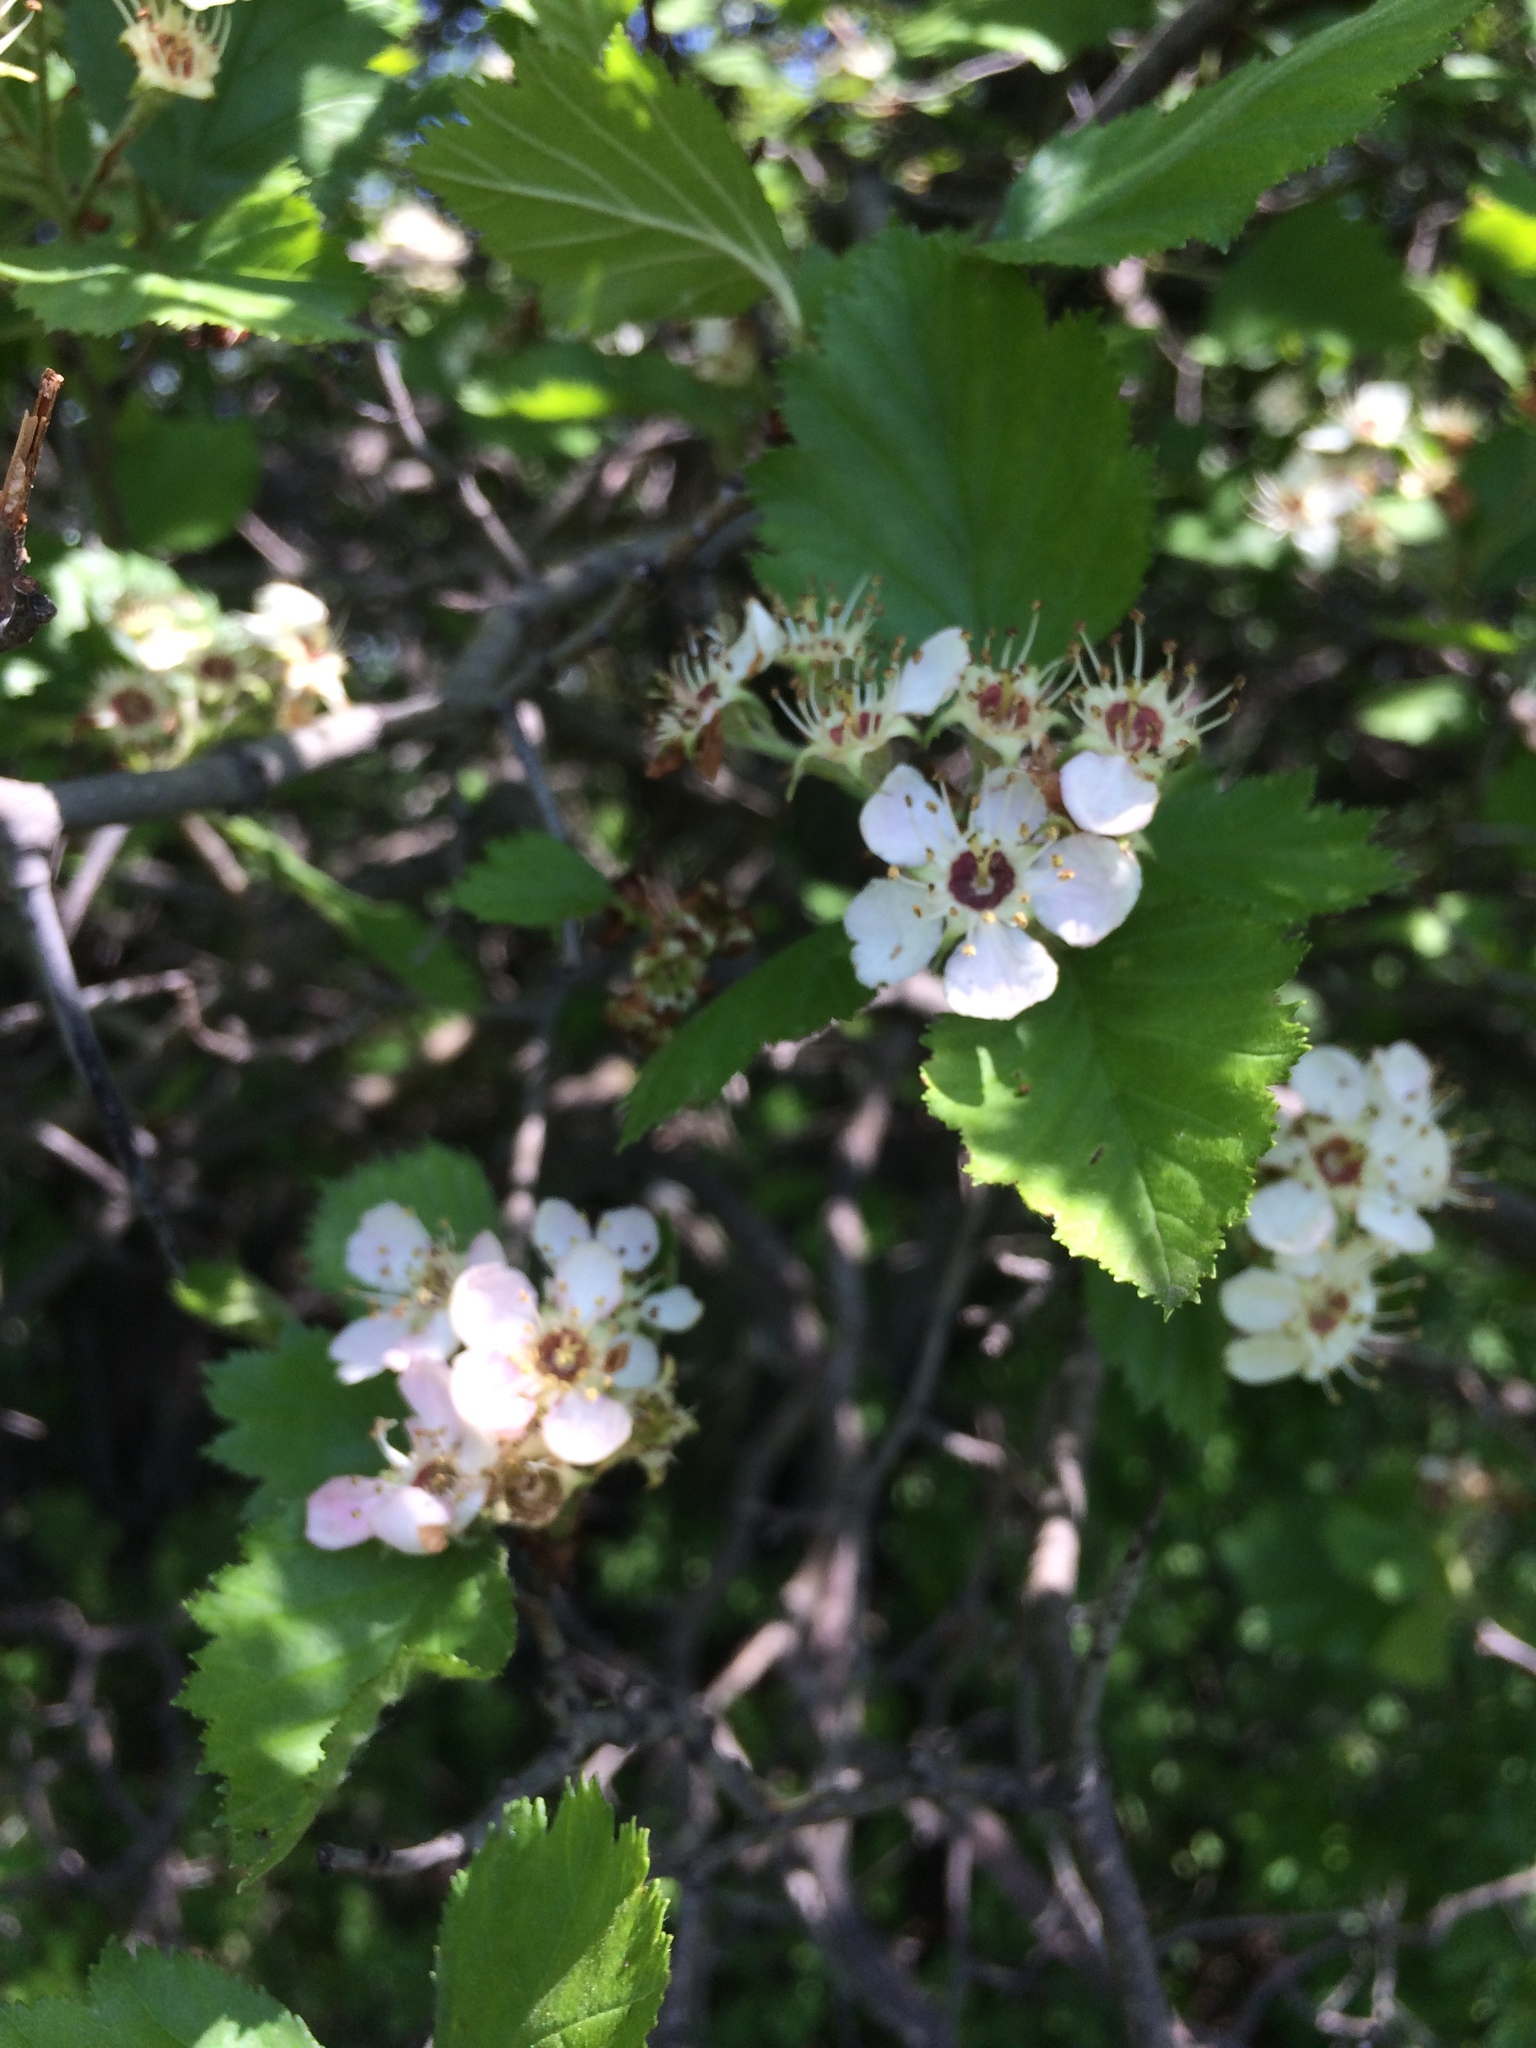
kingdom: Plantae
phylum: Tracheophyta
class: Magnoliopsida
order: Rosales
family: Rosaceae
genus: Crataegus
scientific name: Crataegus submollis
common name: Hairy cockspurthorn
